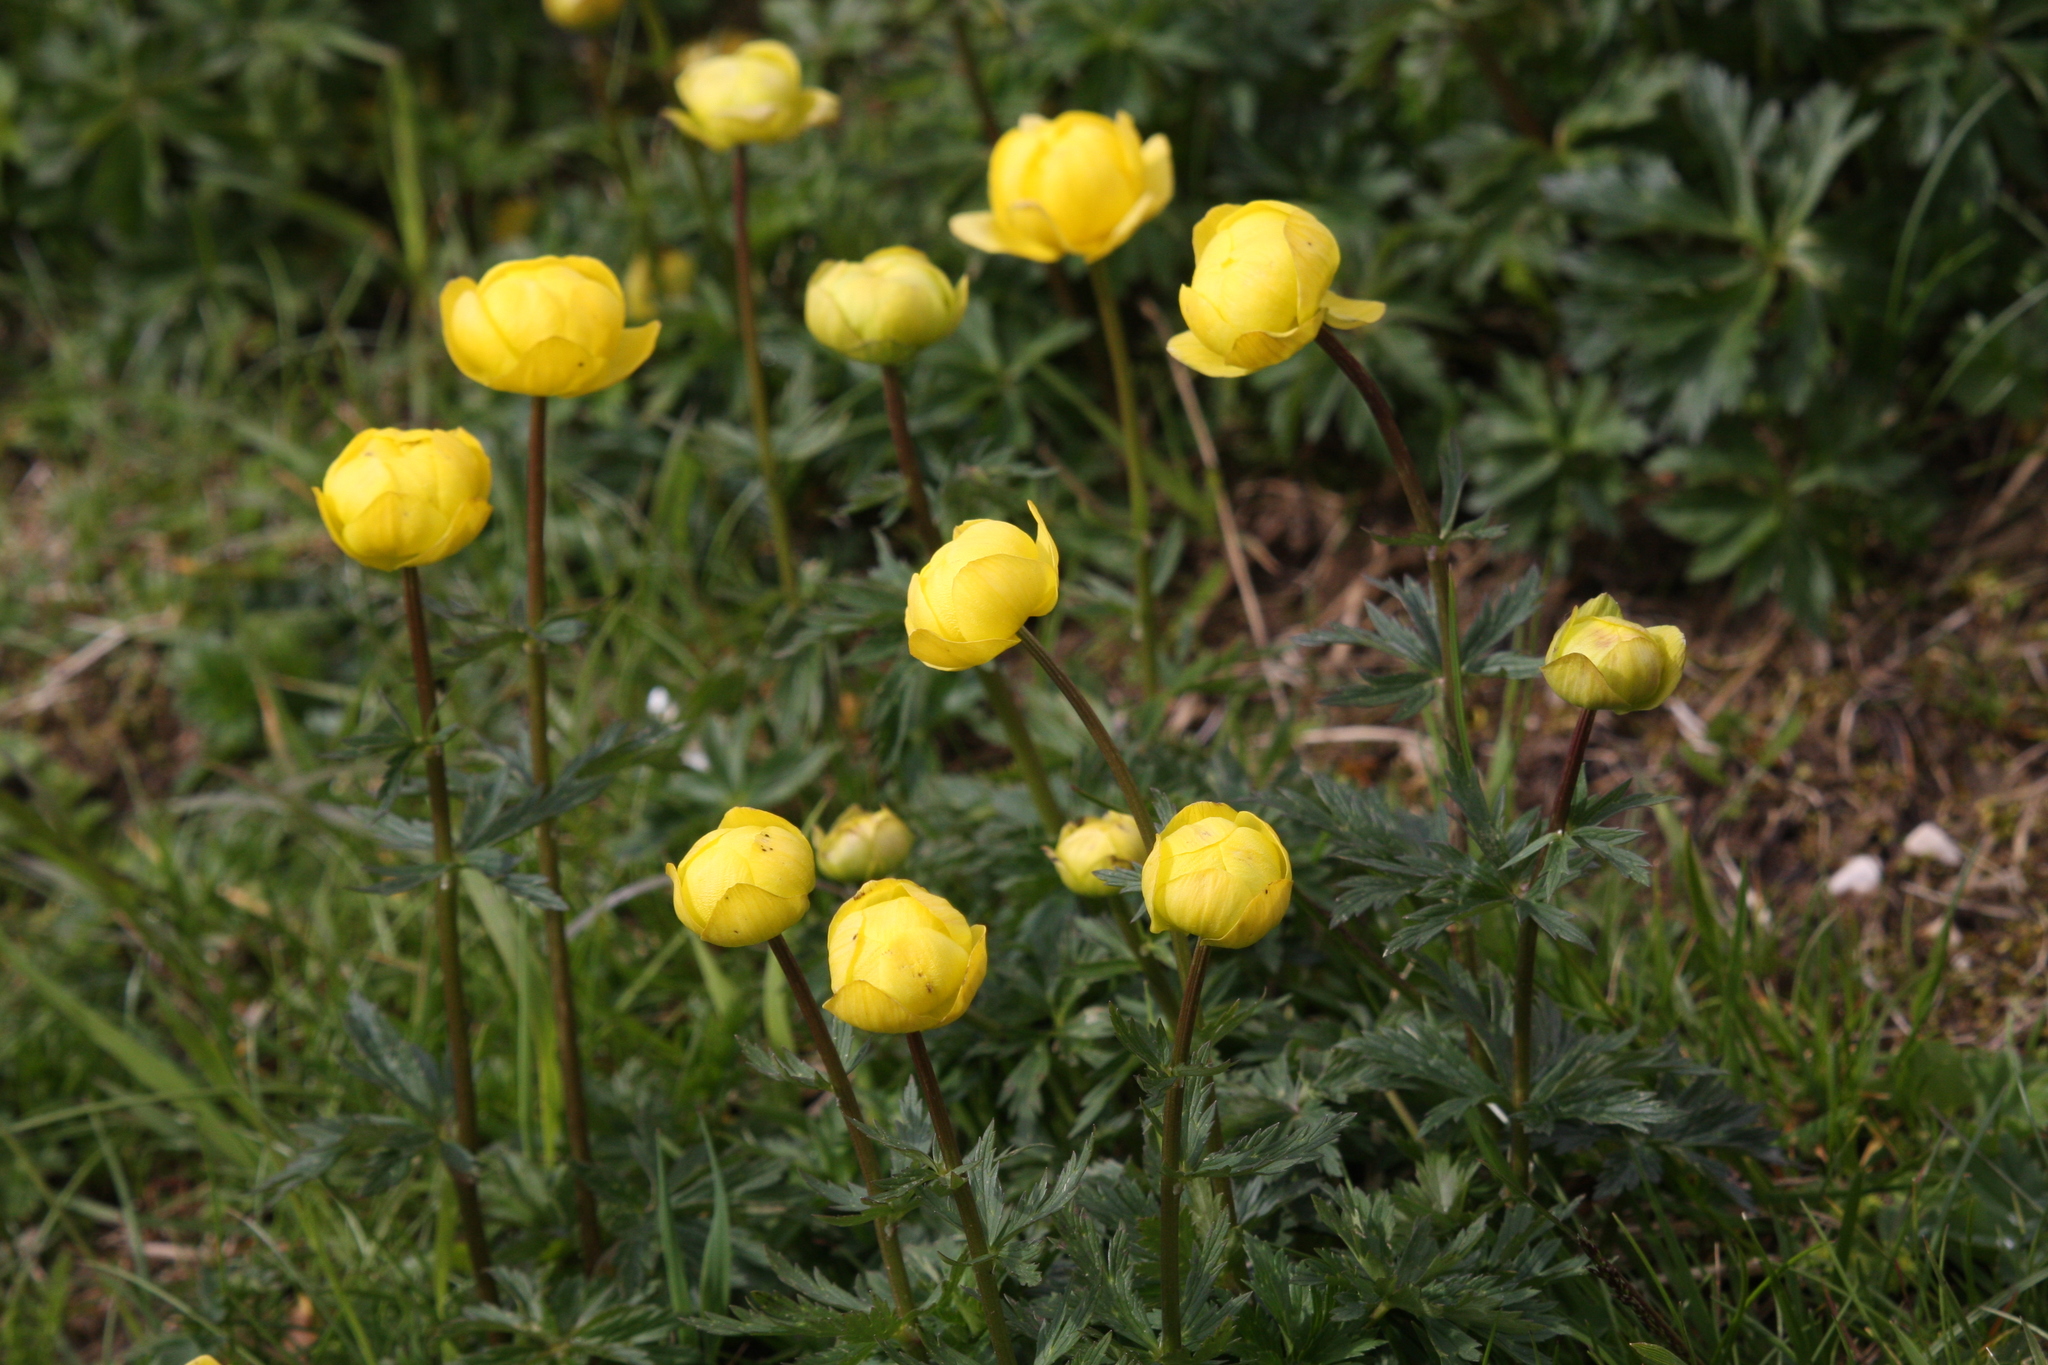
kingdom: Plantae
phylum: Tracheophyta
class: Magnoliopsida
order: Ranunculales
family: Ranunculaceae
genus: Trollius
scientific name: Trollius europaeus
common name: European globeflower
